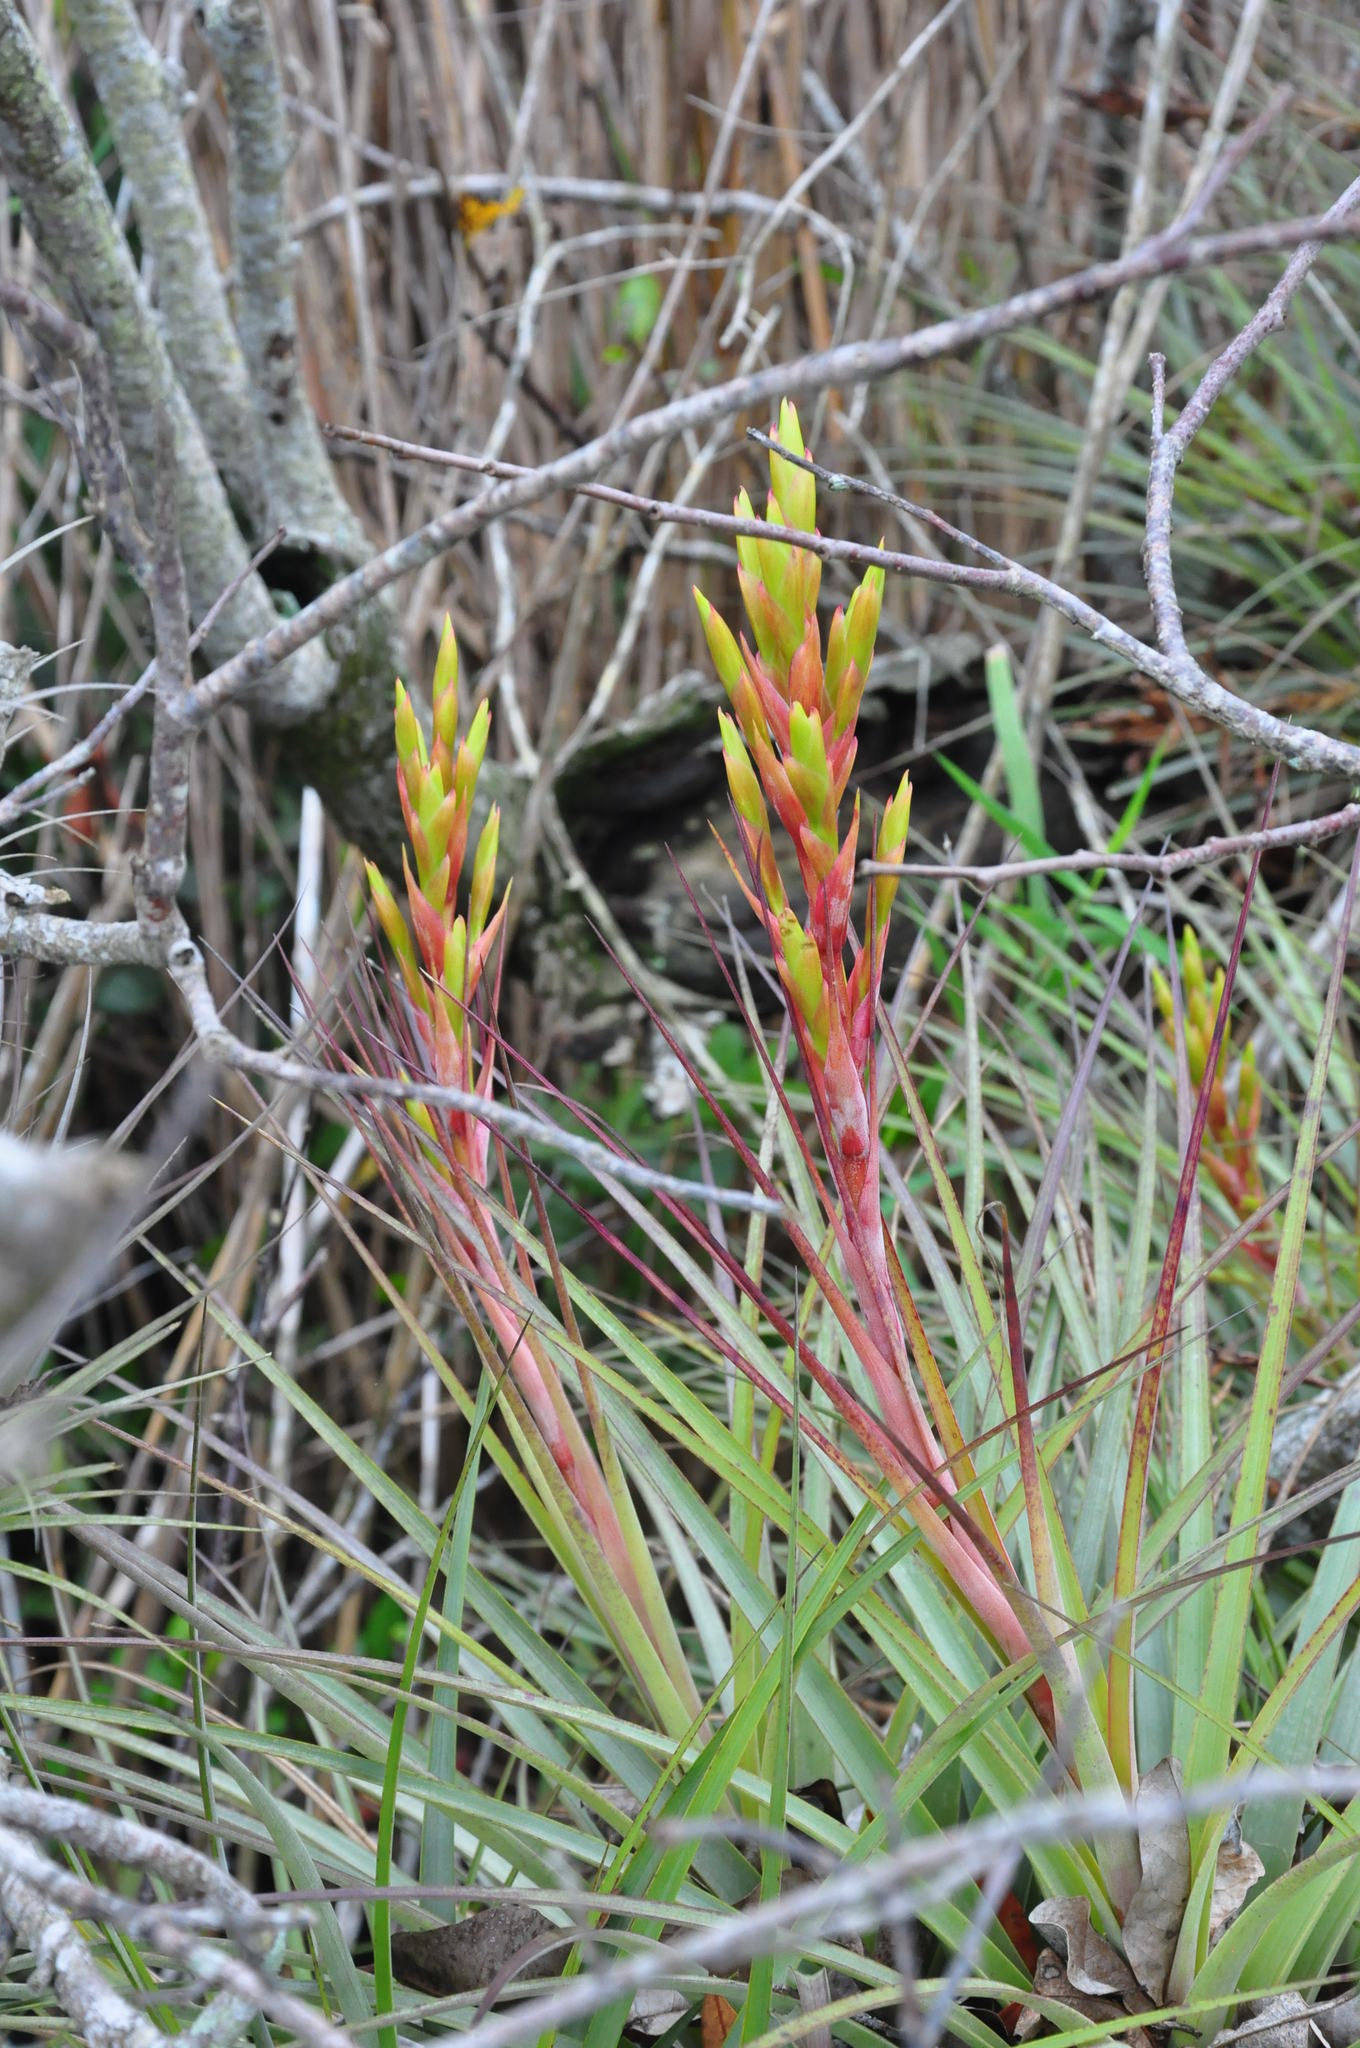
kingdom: Plantae
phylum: Tracheophyta
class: Liliopsida
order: Poales
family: Bromeliaceae
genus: Tillandsia
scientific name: Tillandsia fasciculata
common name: Giant airplant
